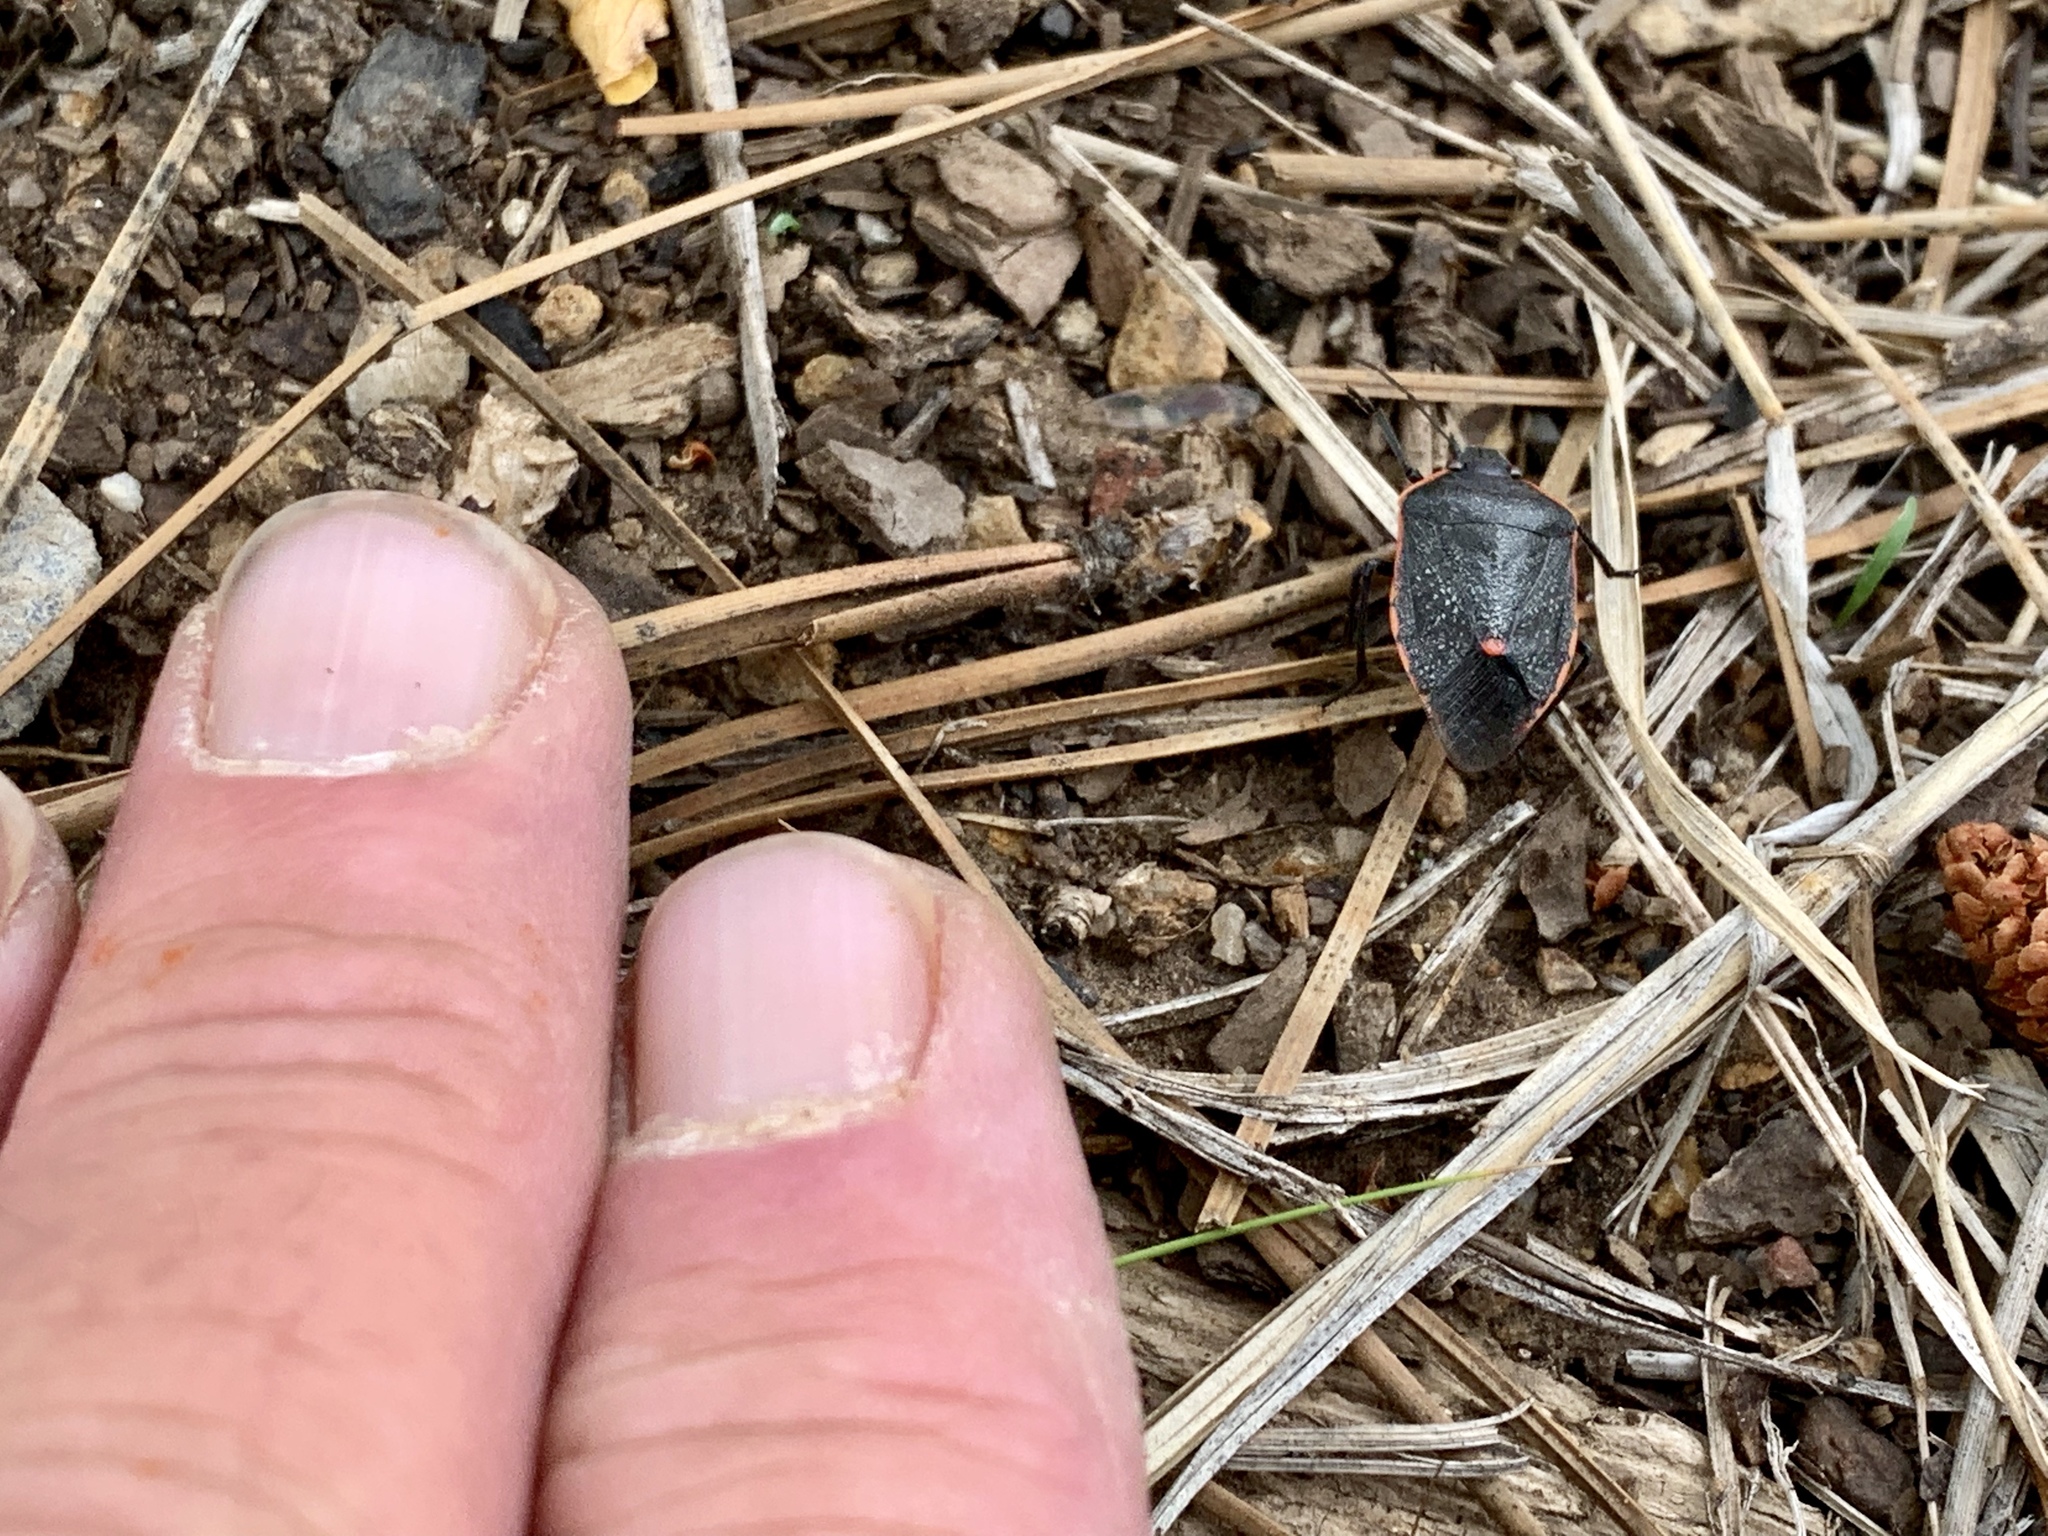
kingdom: Animalia
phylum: Arthropoda
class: Insecta
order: Hemiptera
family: Pentatomidae
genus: Chlorochroa
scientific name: Chlorochroa ligata
